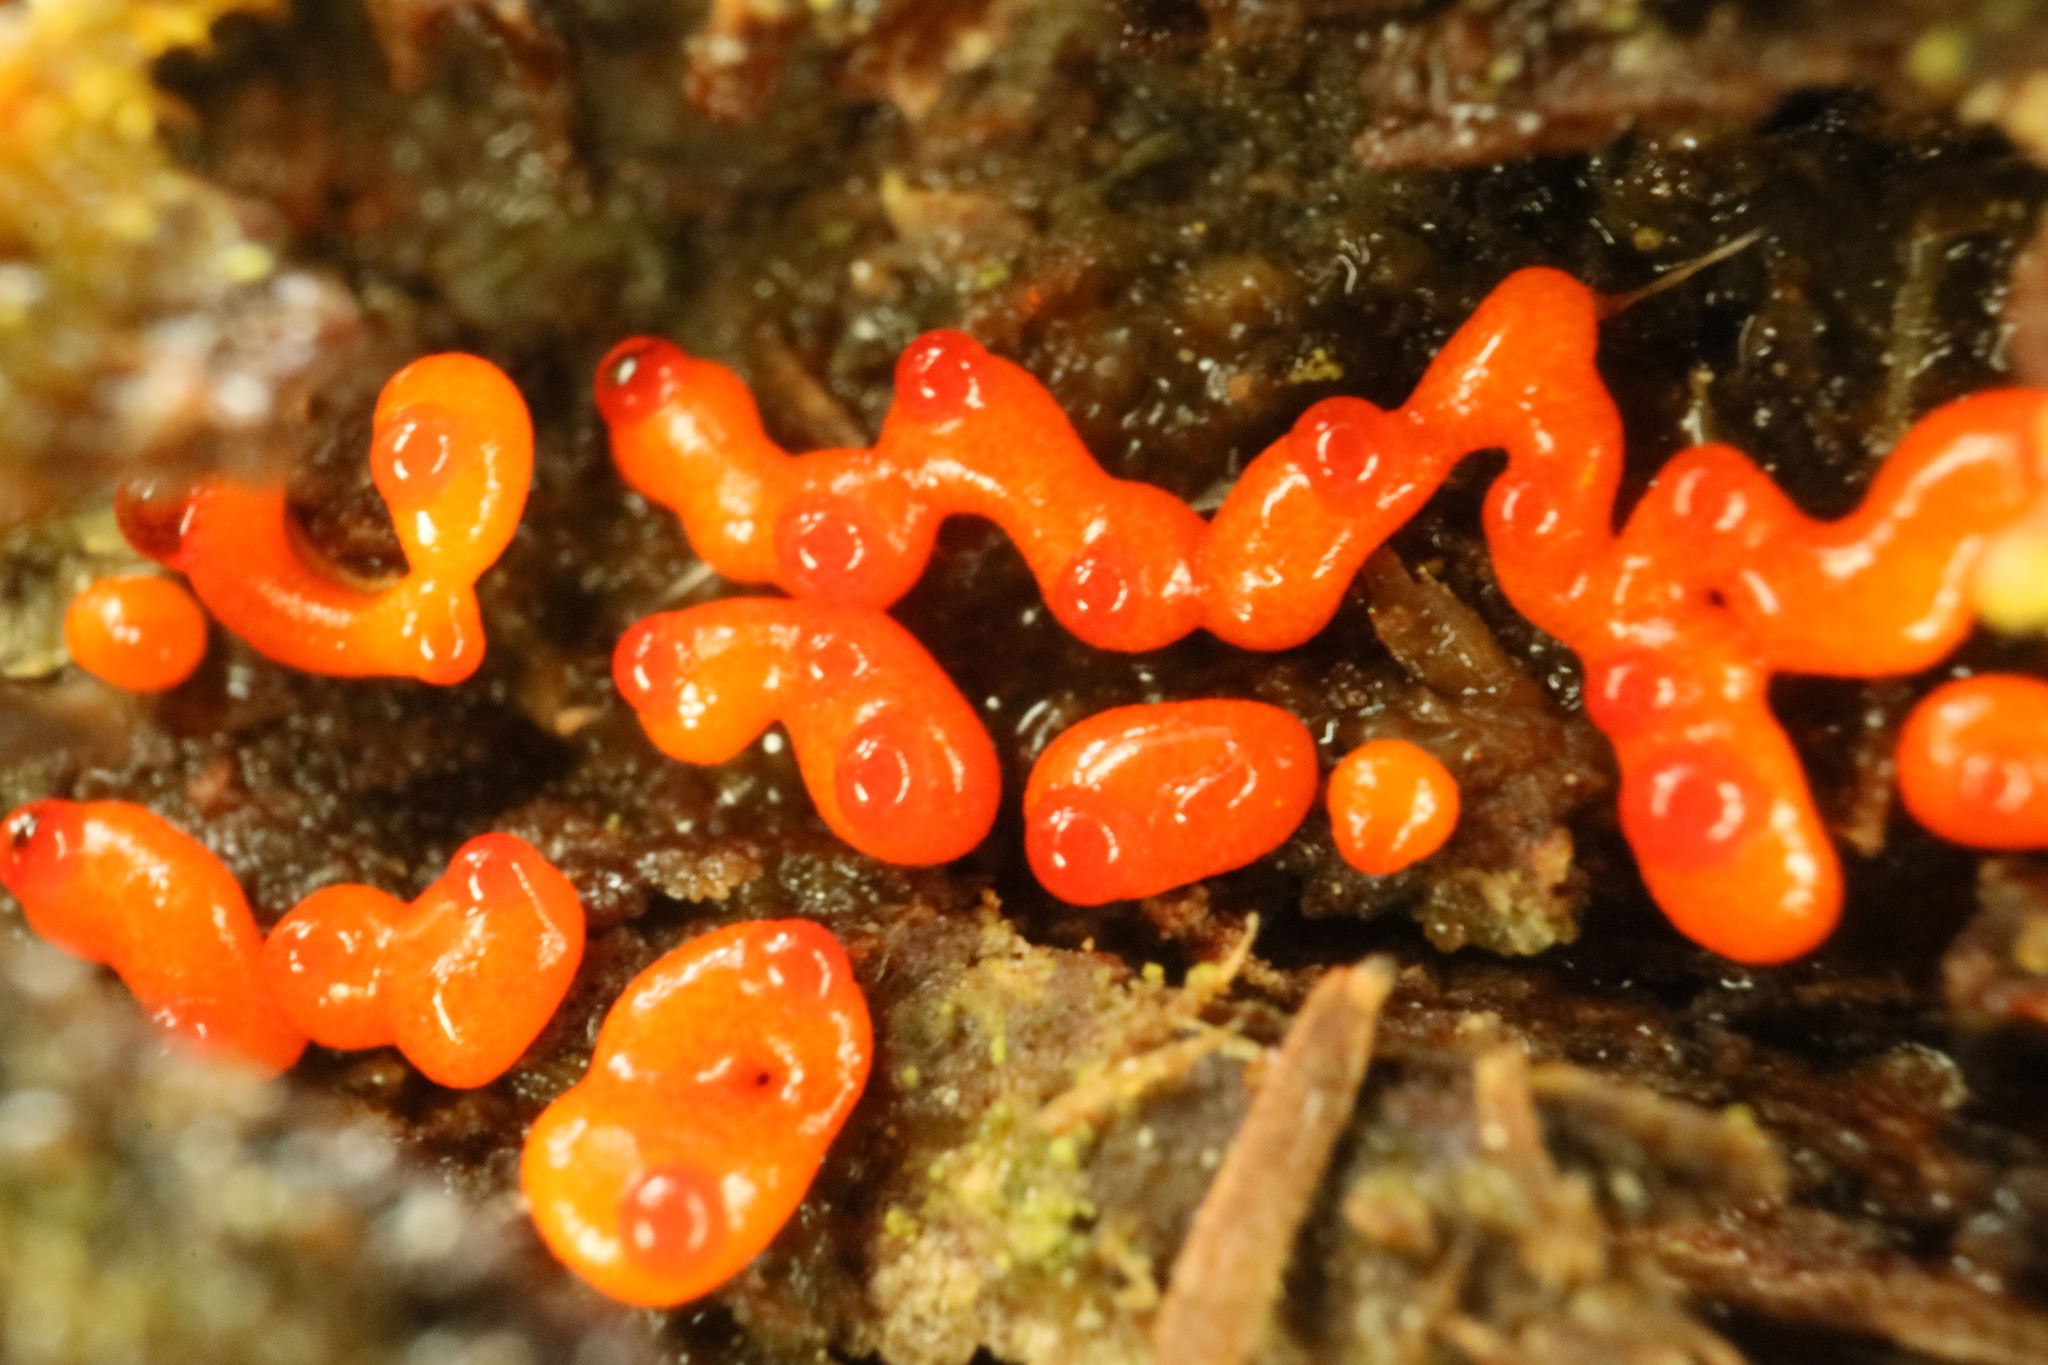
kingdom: Protozoa
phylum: Mycetozoa
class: Myxomycetes
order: Physarales
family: Physaraceae
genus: Willkommlangea
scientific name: Willkommlangea reticulata
